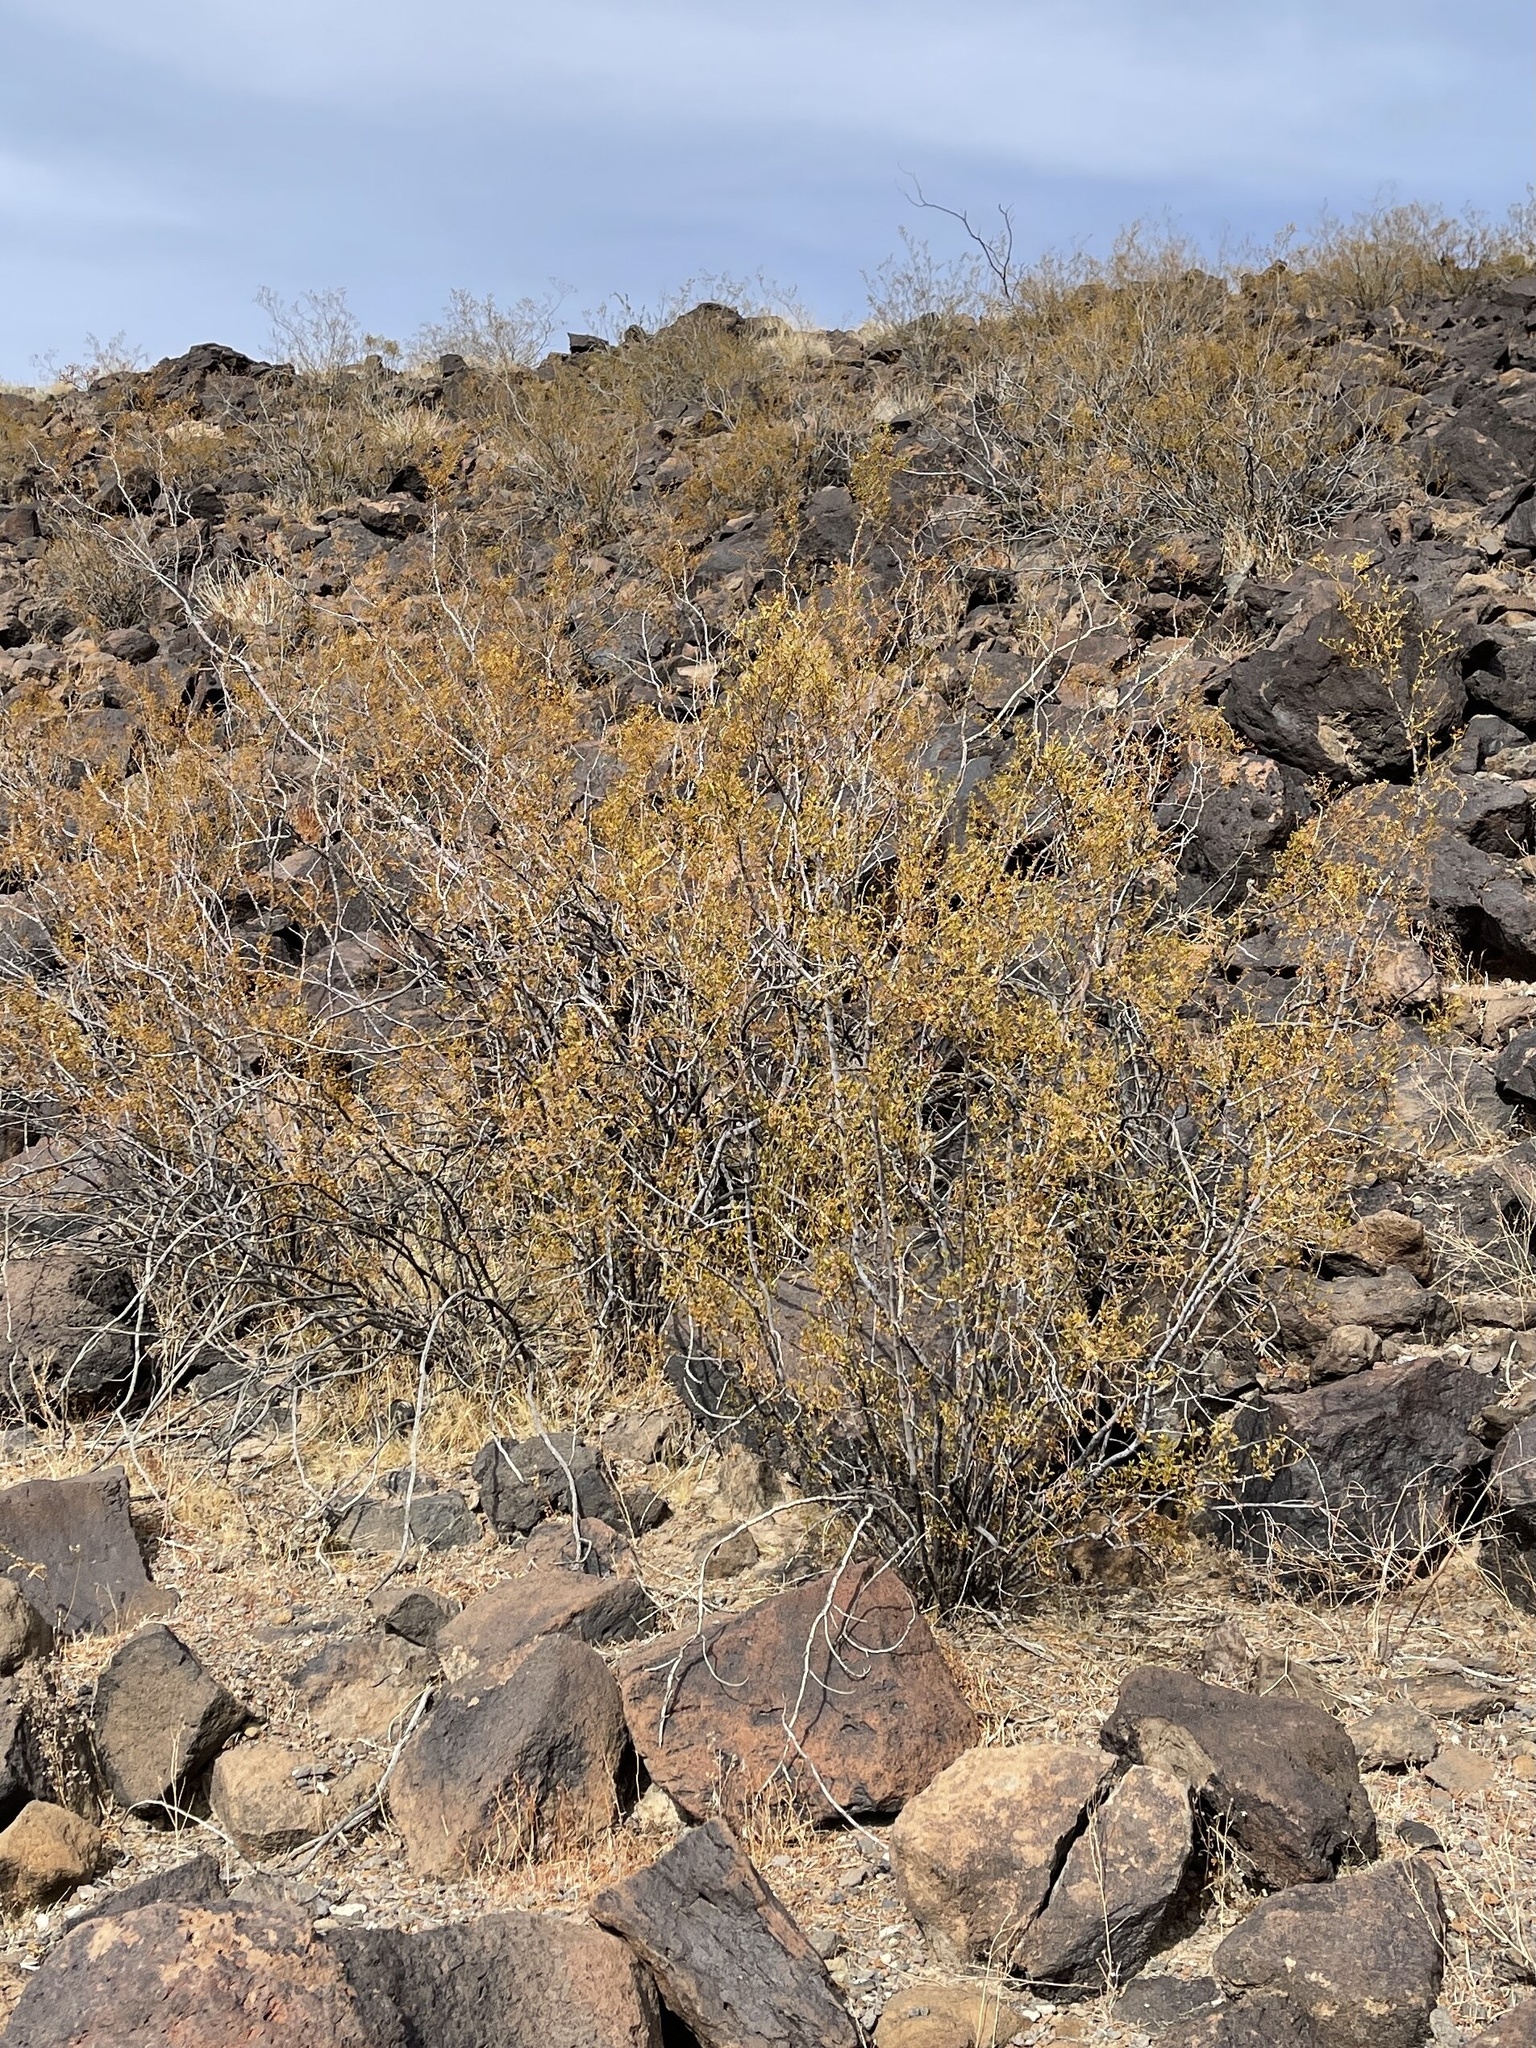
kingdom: Plantae
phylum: Tracheophyta
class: Magnoliopsida
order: Zygophyllales
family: Zygophyllaceae
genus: Larrea
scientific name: Larrea tridentata
